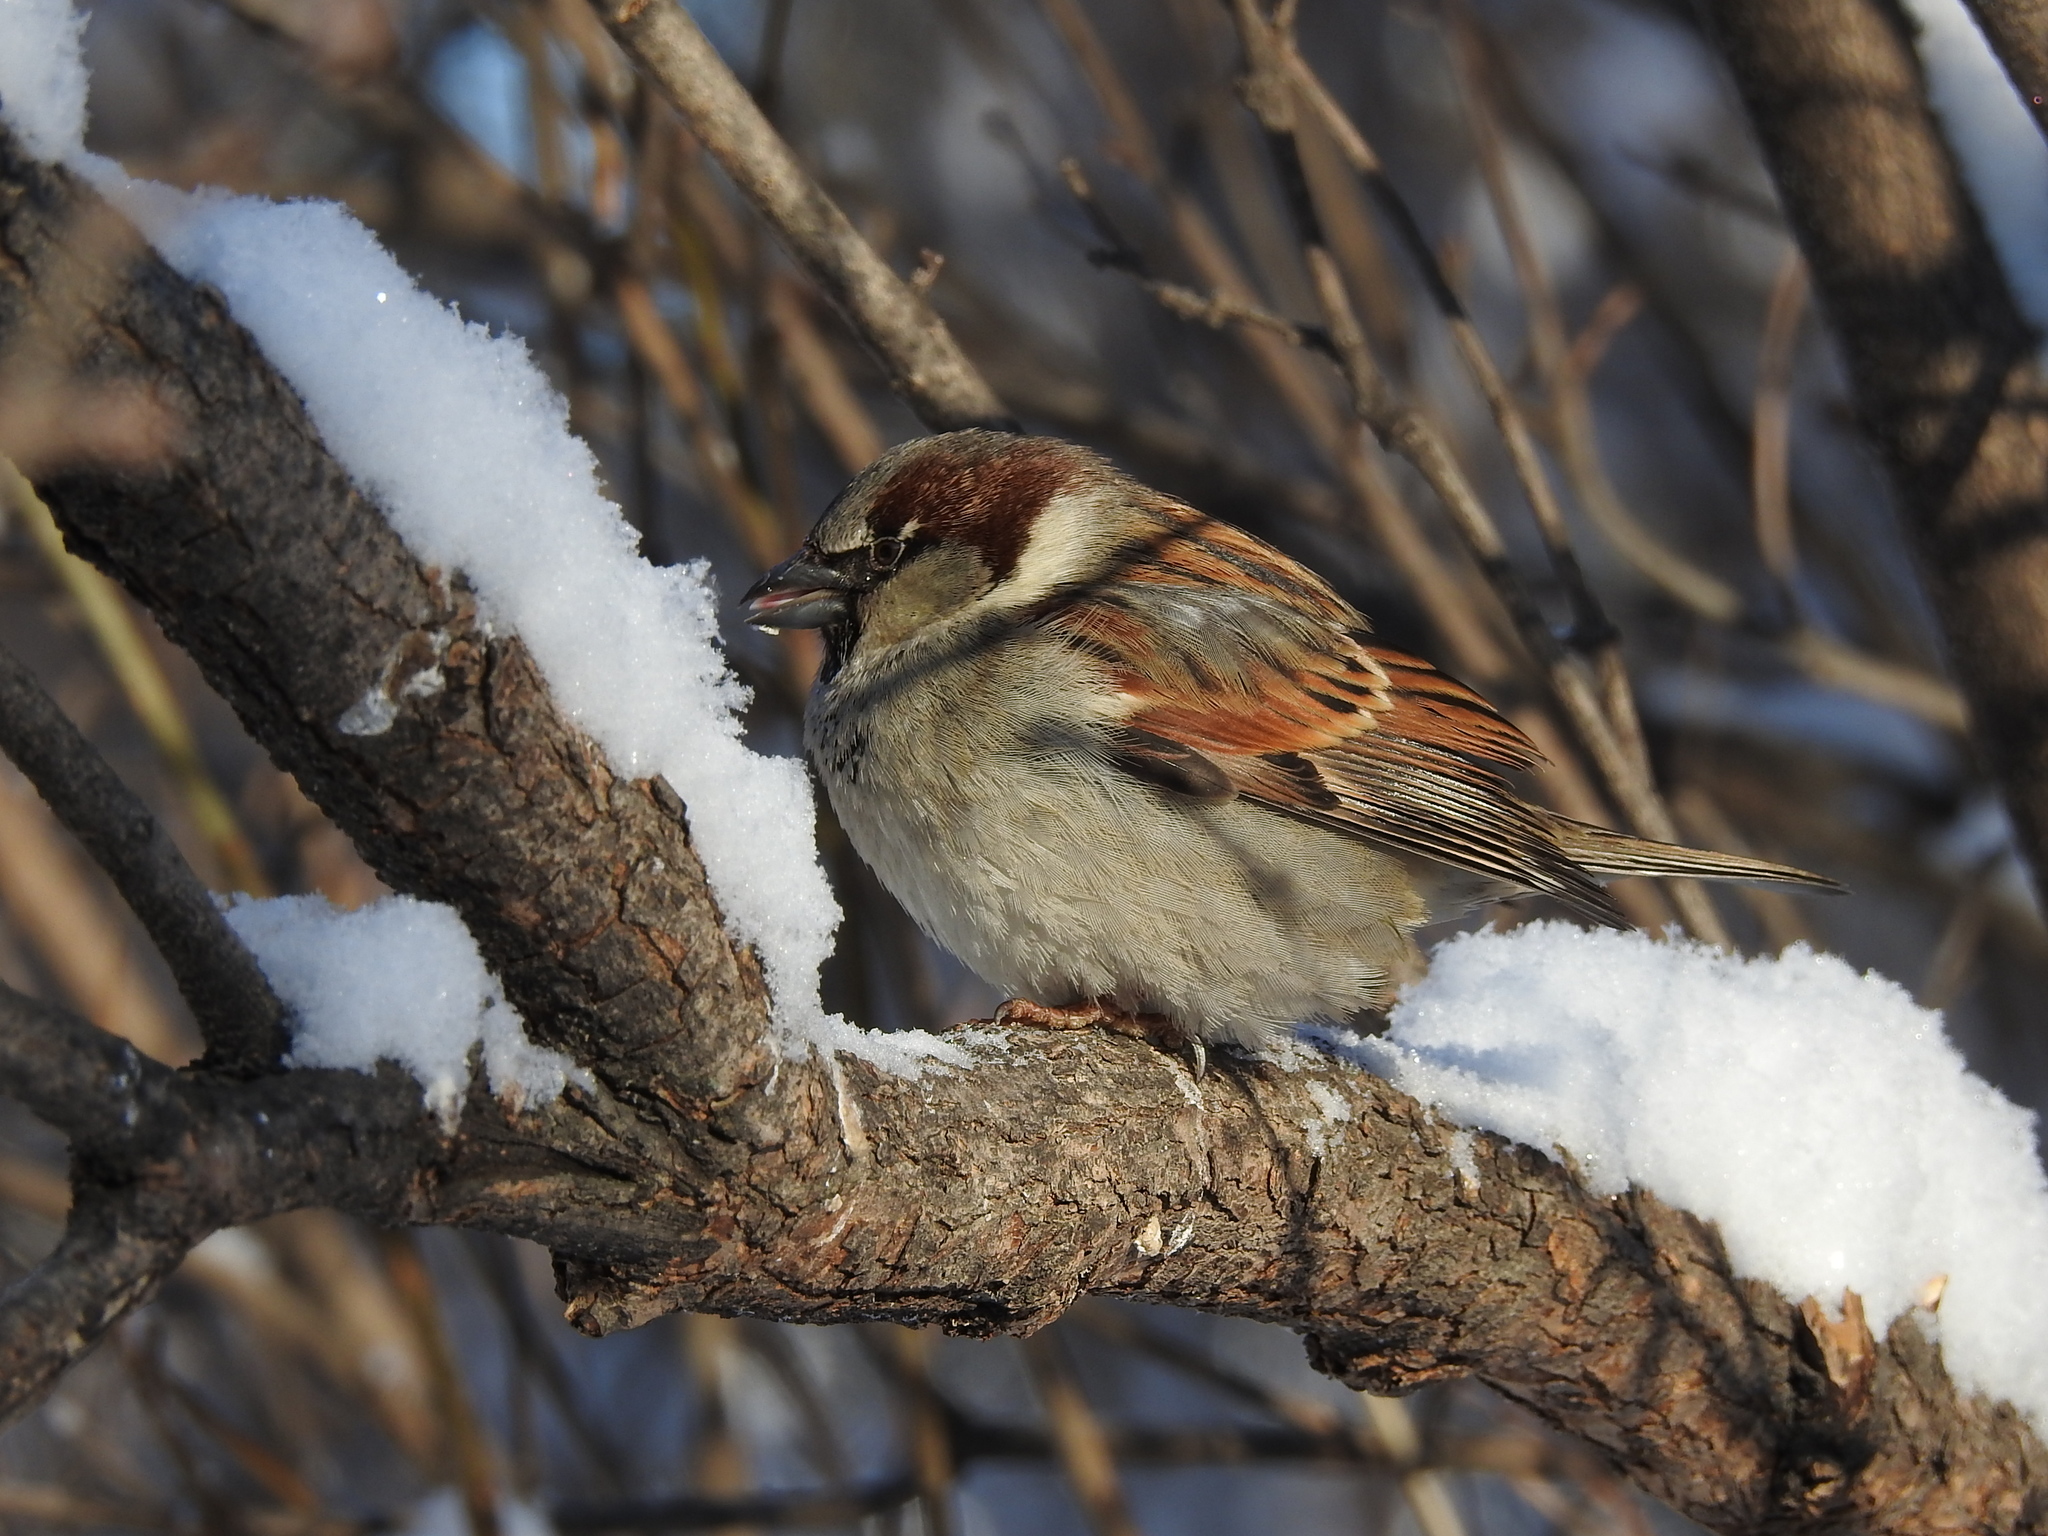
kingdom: Animalia
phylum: Chordata
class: Aves
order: Passeriformes
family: Passeridae
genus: Passer
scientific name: Passer domesticus
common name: House sparrow
